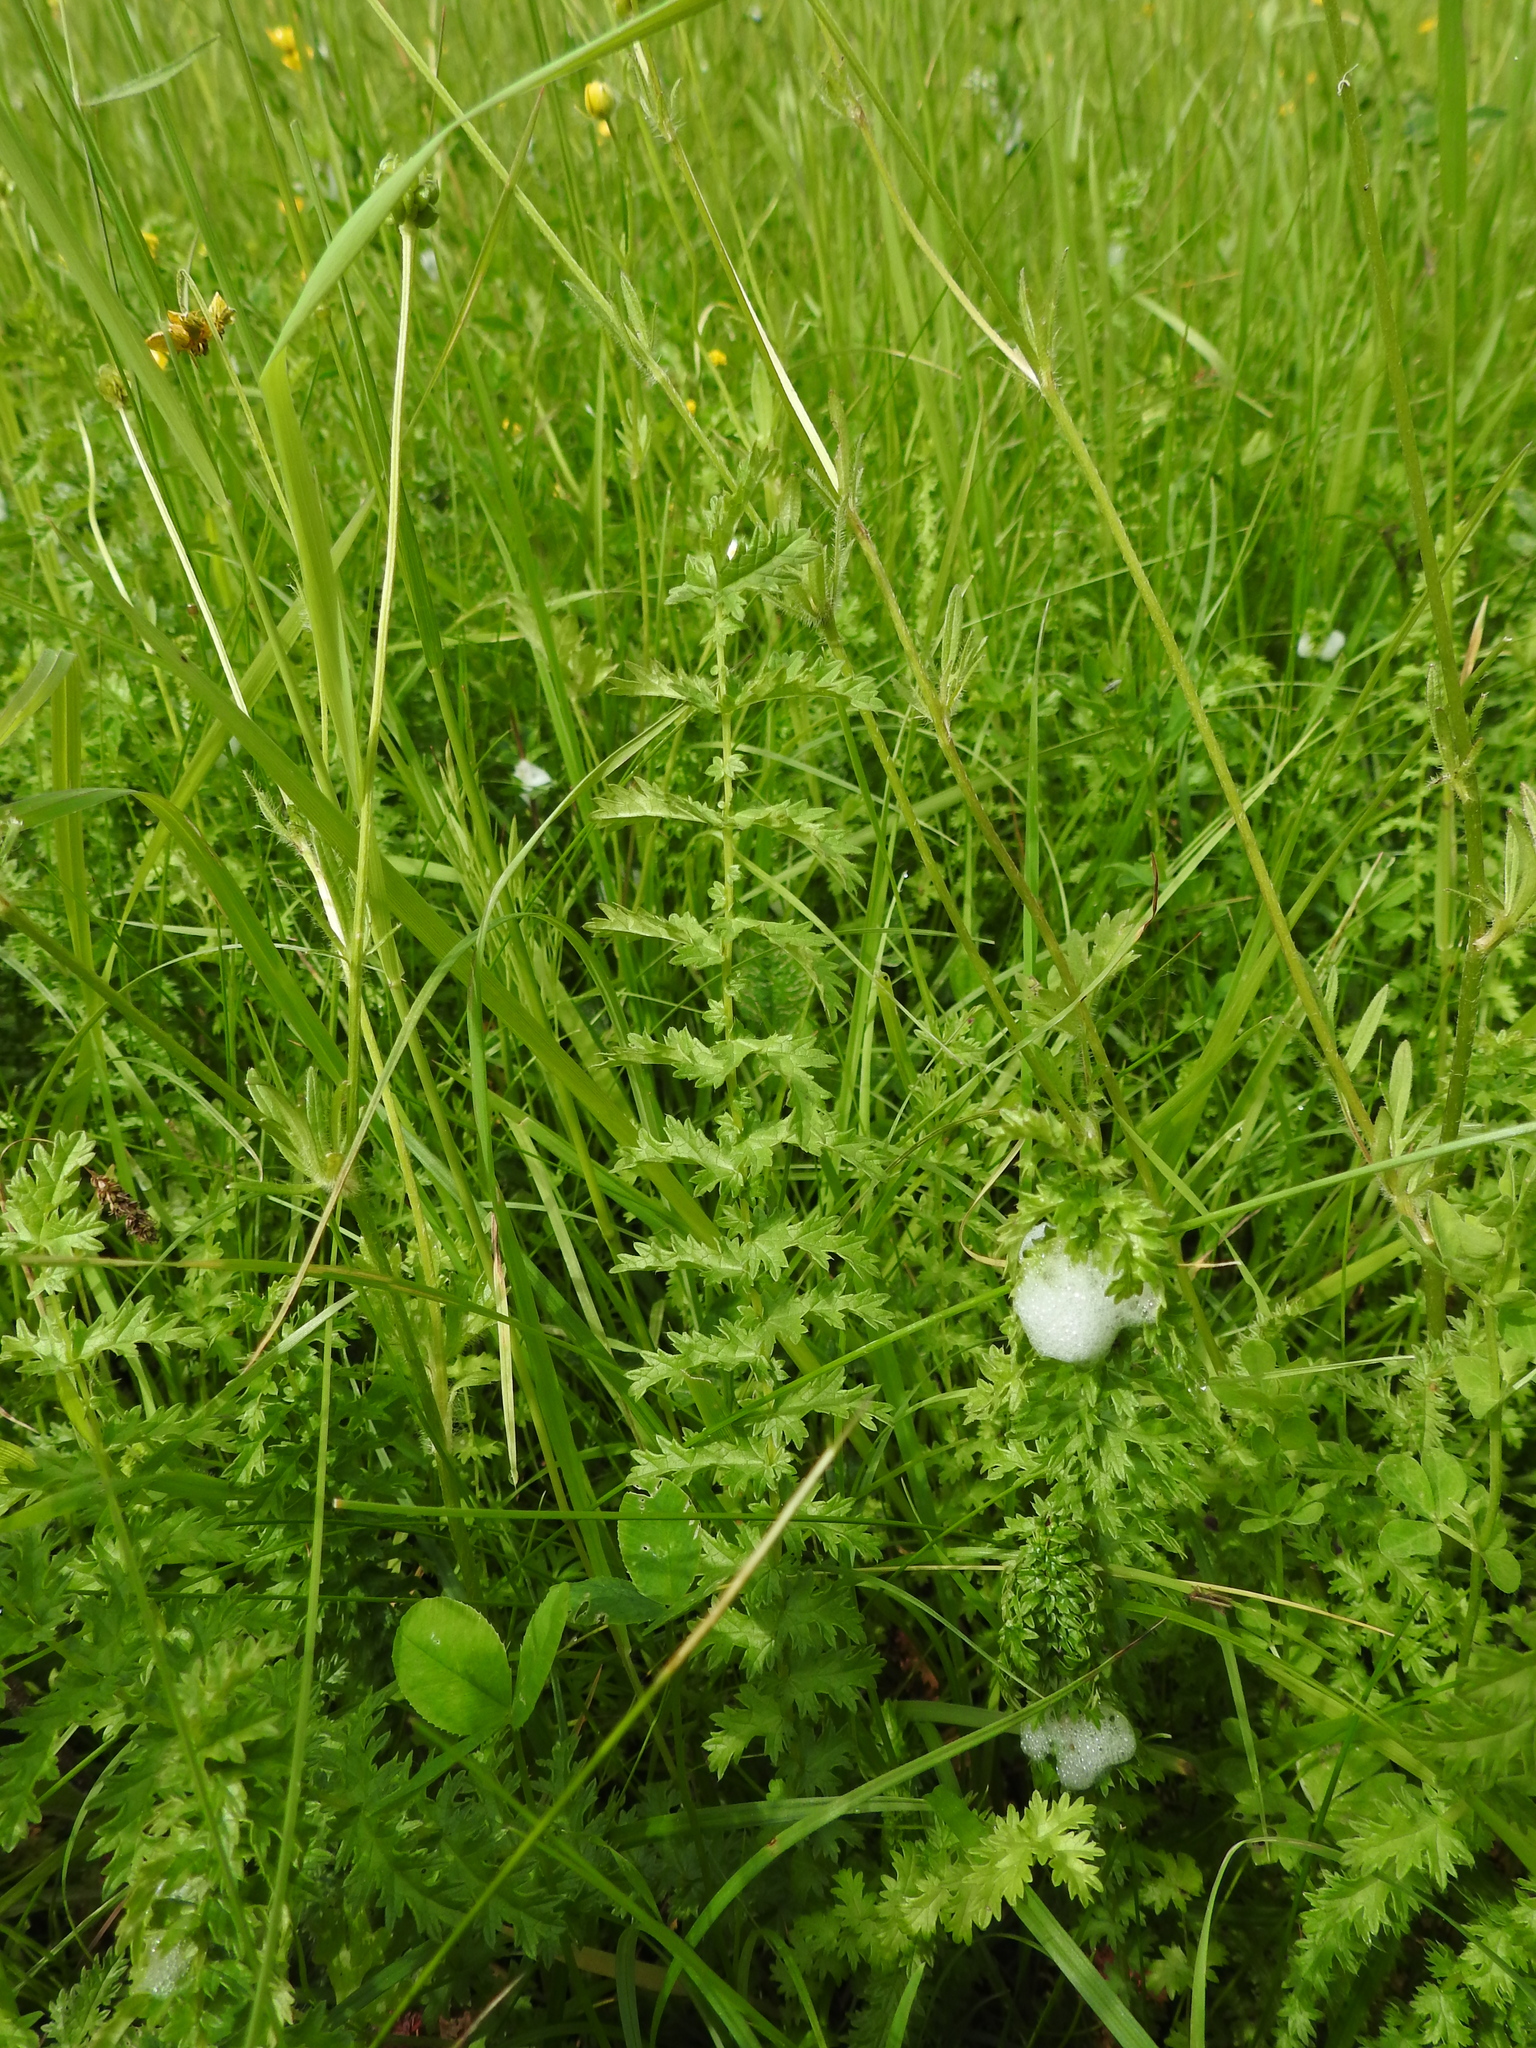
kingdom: Plantae
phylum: Tracheophyta
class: Magnoliopsida
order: Rosales
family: Rosaceae
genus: Filipendula
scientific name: Filipendula vulgaris
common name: Dropwort
